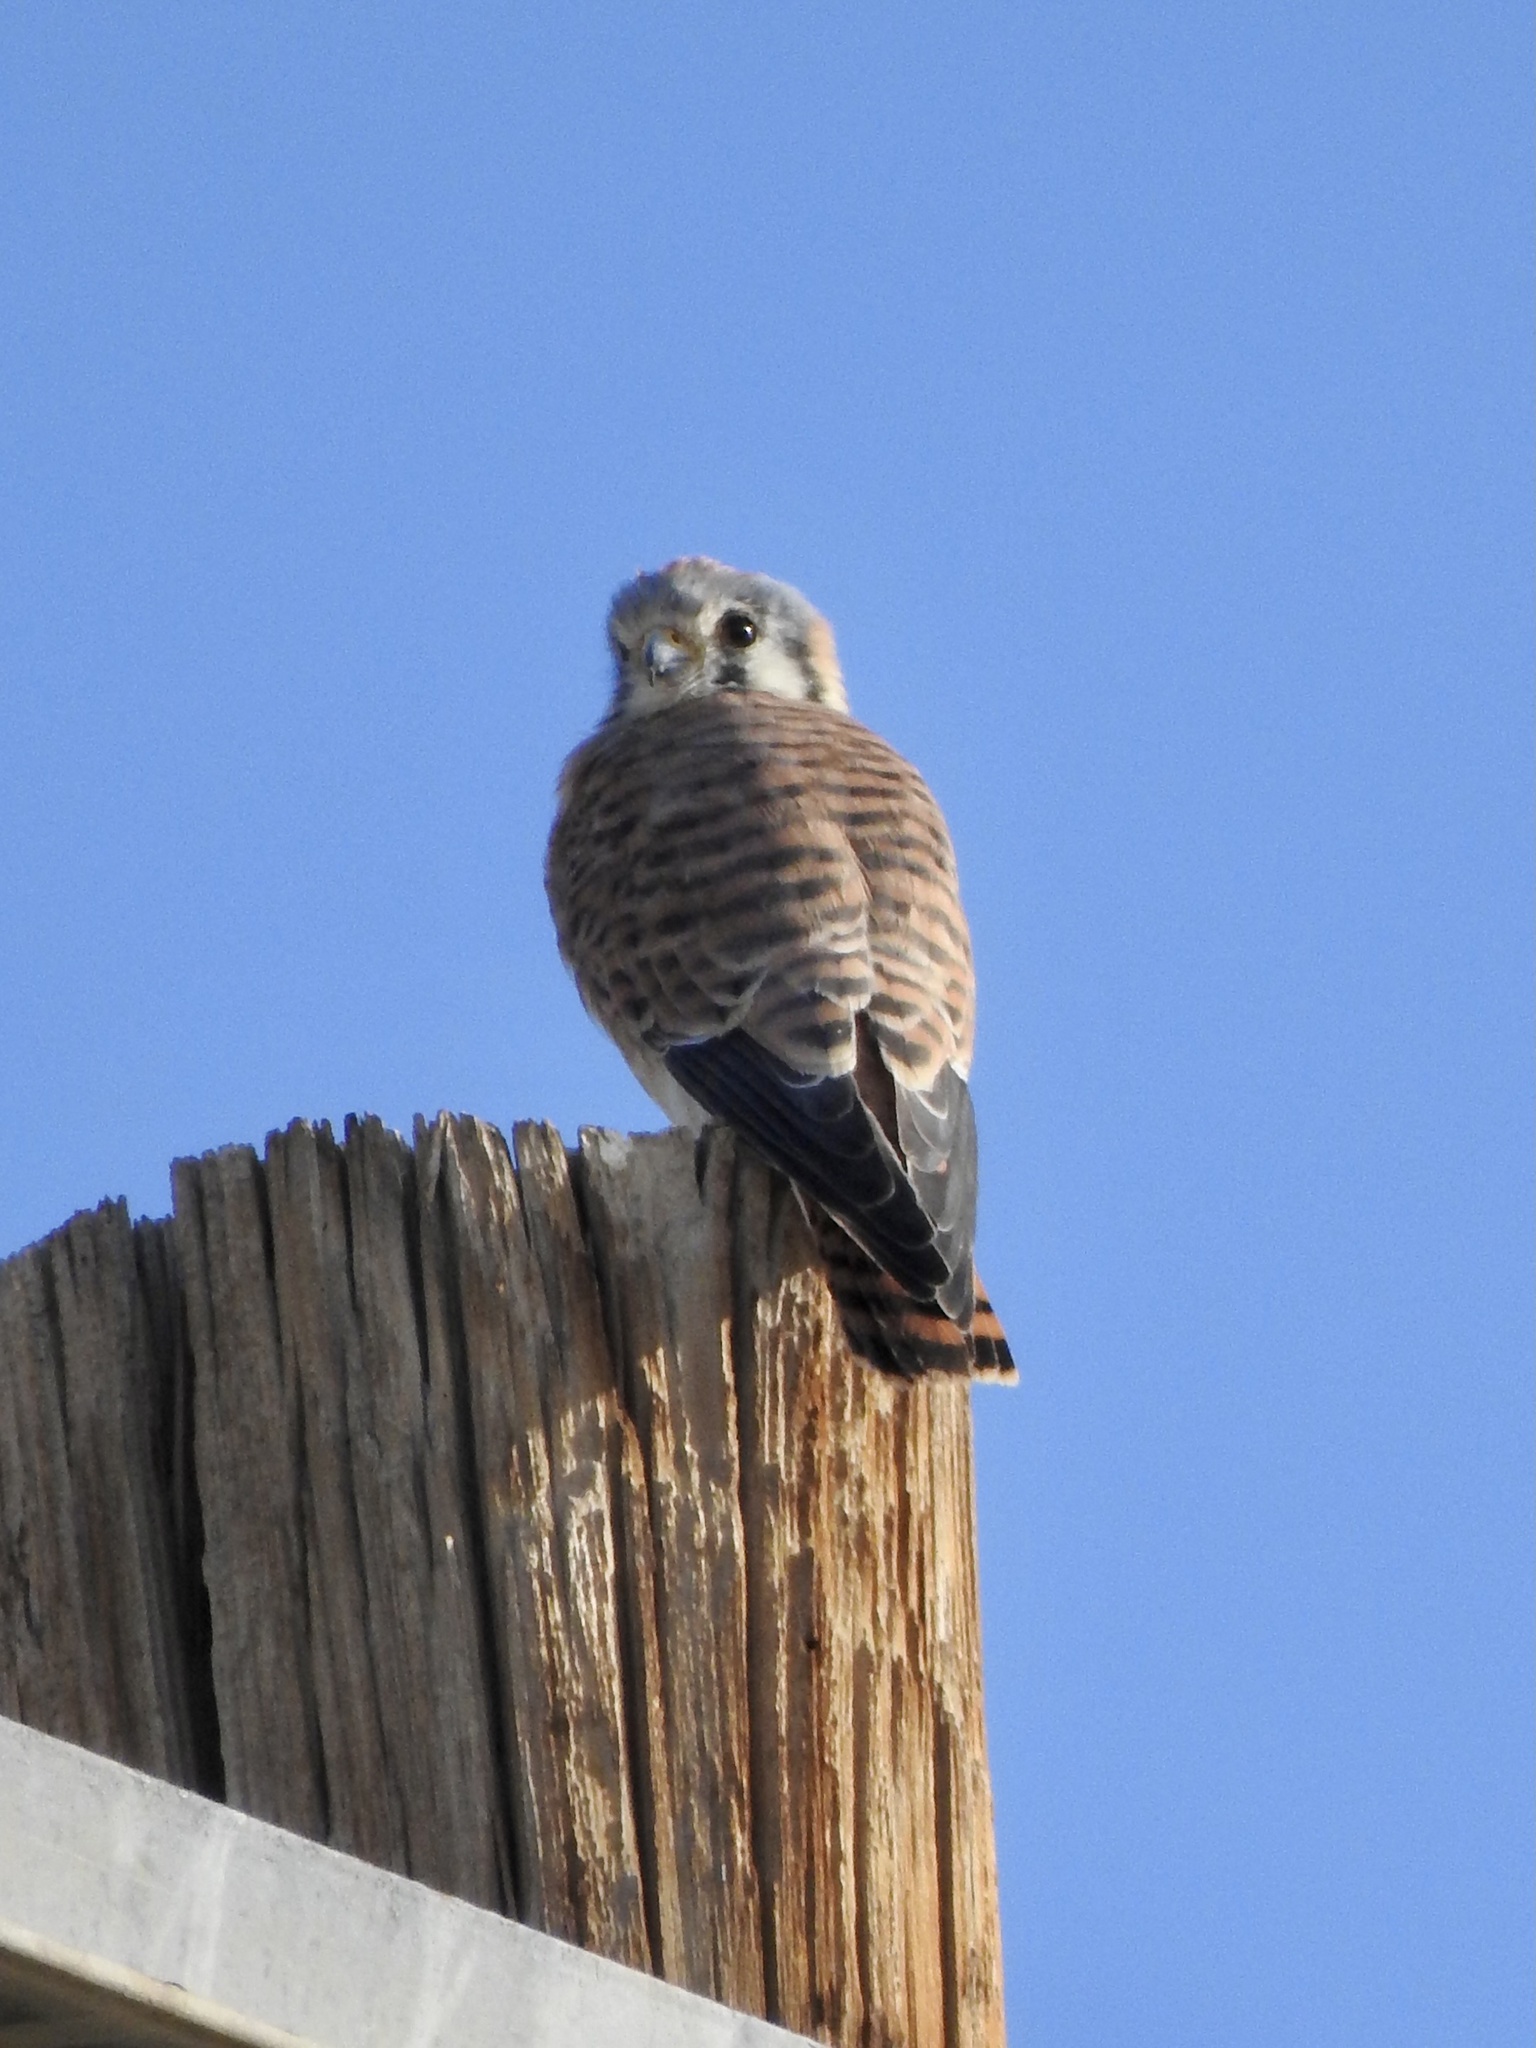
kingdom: Animalia
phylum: Chordata
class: Aves
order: Falconiformes
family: Falconidae
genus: Falco
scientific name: Falco sparverius
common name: American kestrel
